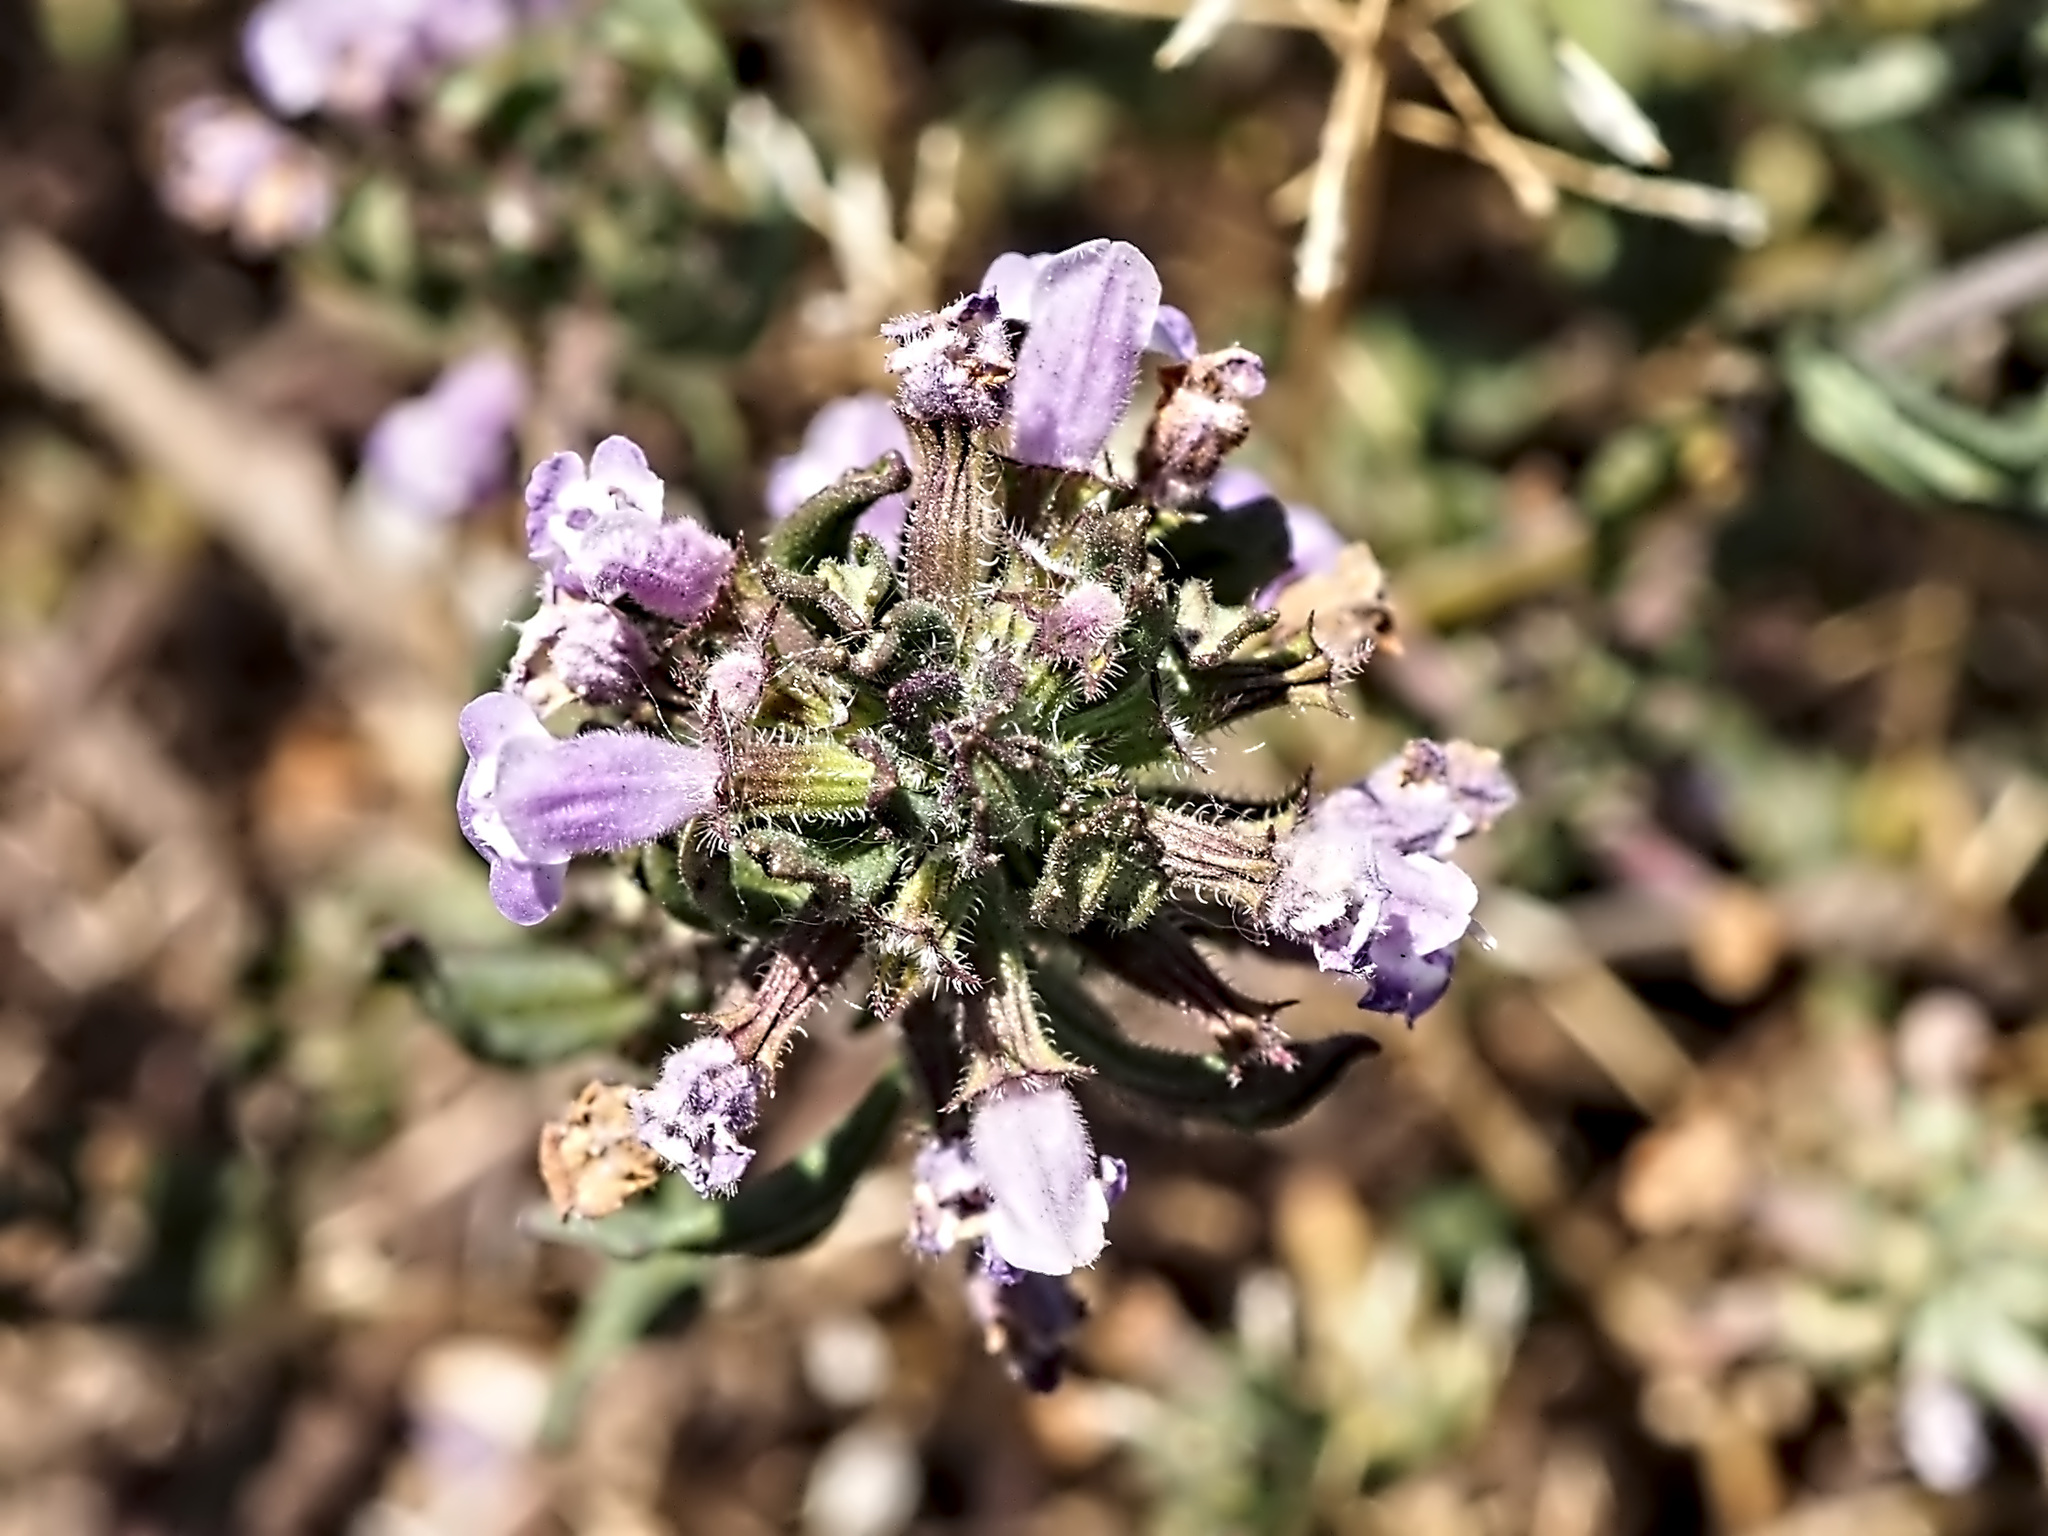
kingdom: Plantae
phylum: Tracheophyta
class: Magnoliopsida
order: Lamiales
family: Lamiaceae
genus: Clinopodium
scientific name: Clinopodium acinos
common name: Basil thyme
